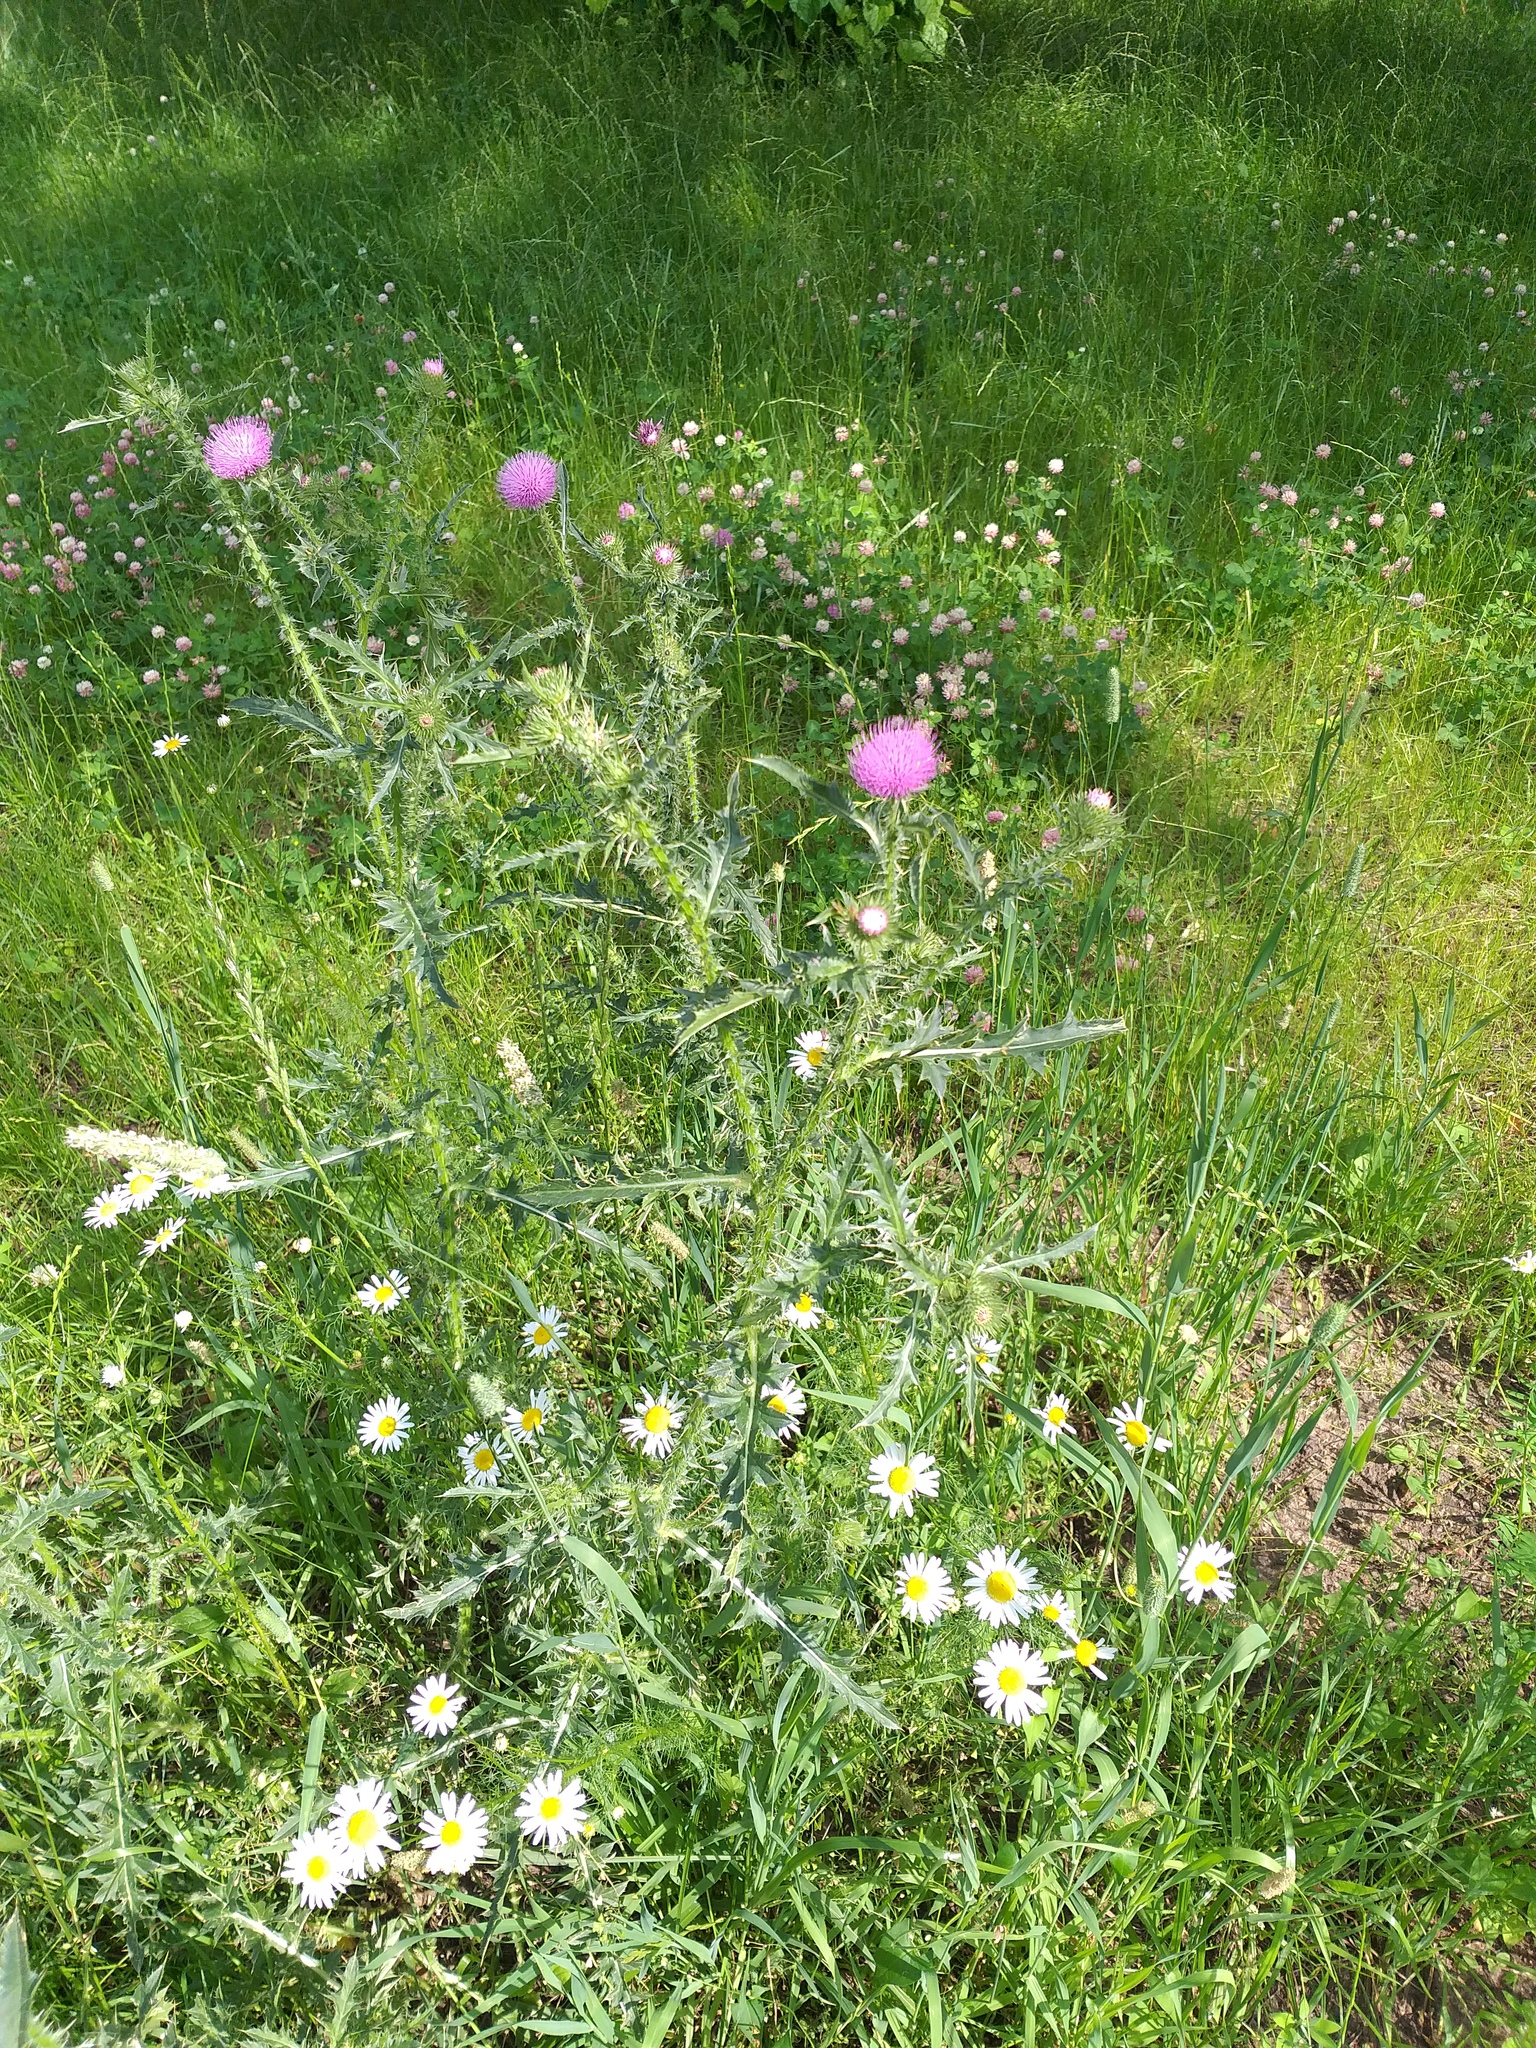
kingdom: Plantae
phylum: Tracheophyta
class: Magnoliopsida
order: Asterales
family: Asteraceae
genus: Carduus
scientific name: Carduus acanthoides
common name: Plumeless thistle
